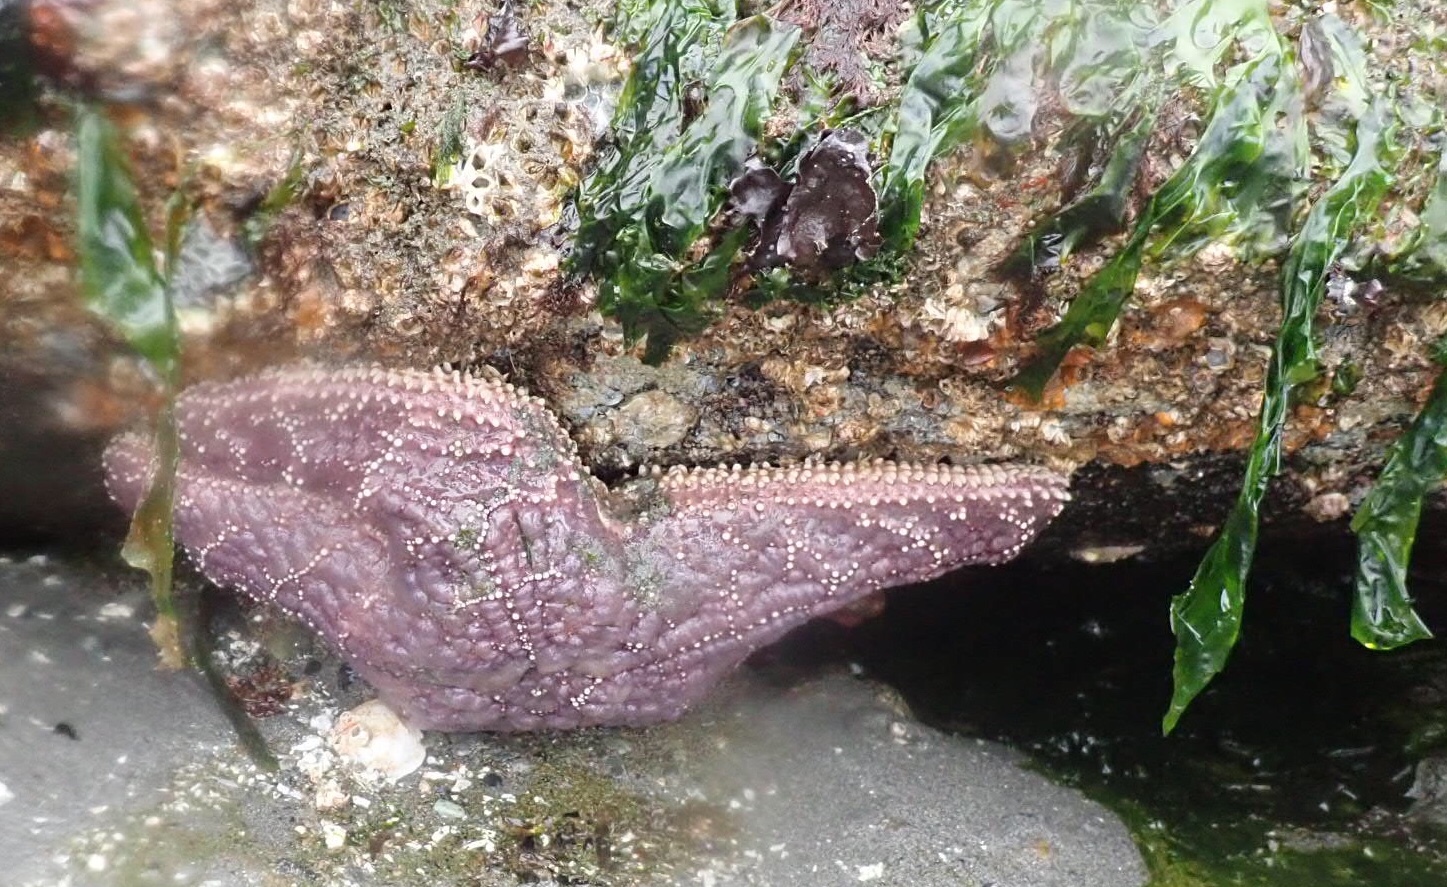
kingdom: Animalia
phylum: Echinodermata
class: Asteroidea
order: Forcipulatida
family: Asteriidae
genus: Pisaster
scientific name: Pisaster ochraceus
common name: Ochre stars
